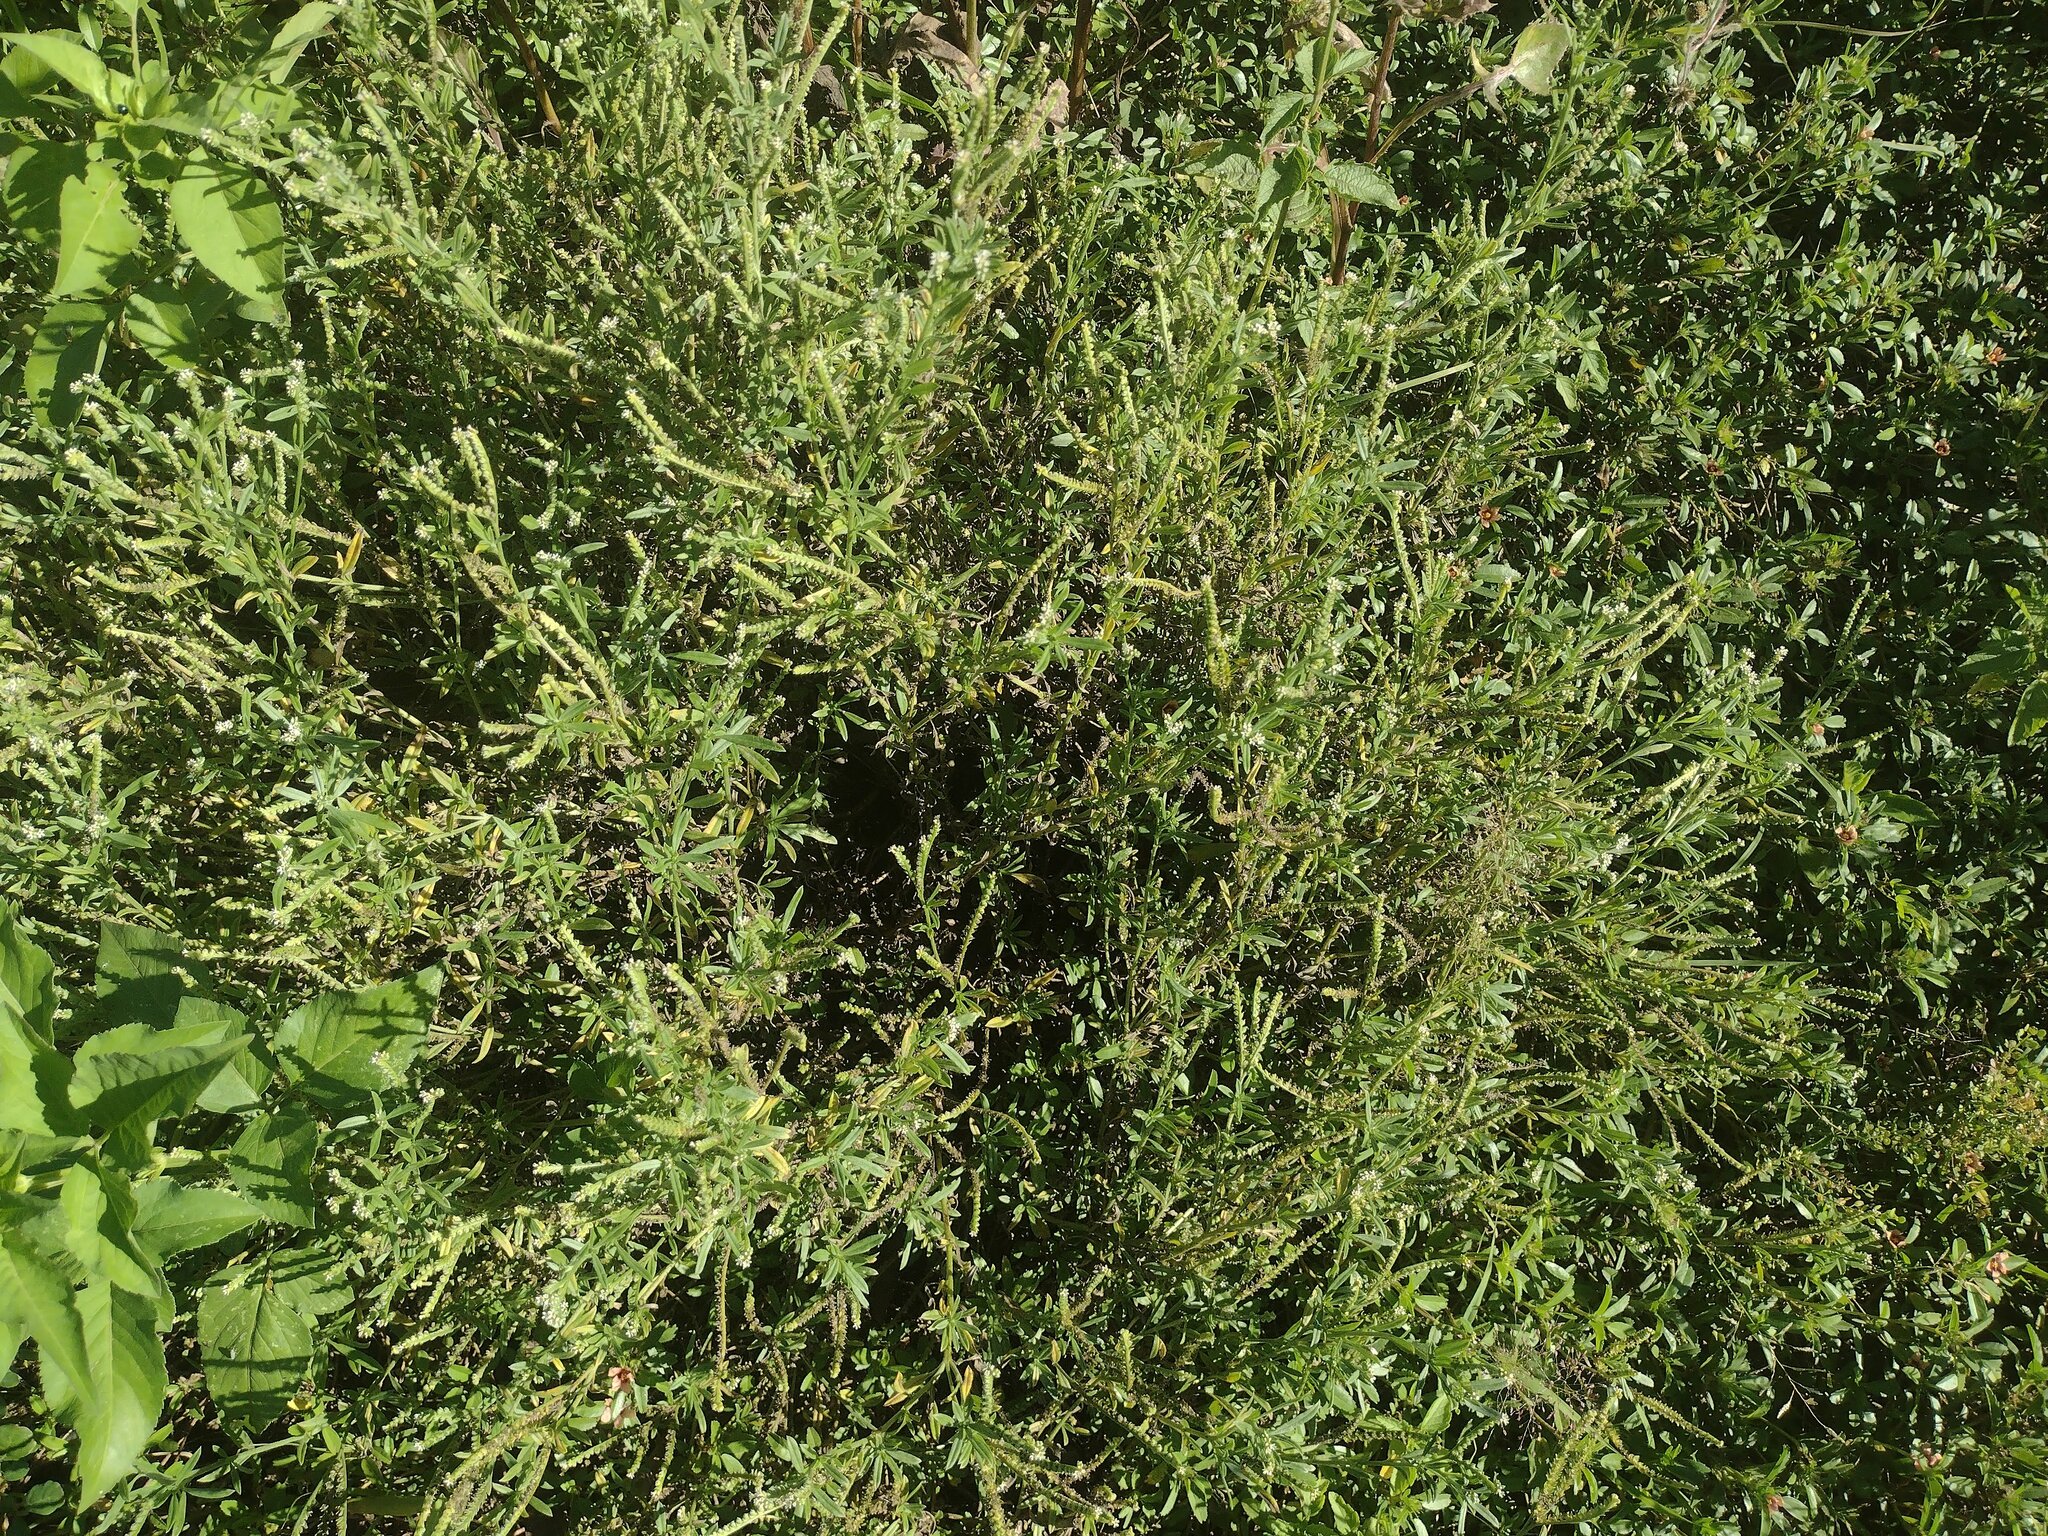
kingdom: Plantae
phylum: Tracheophyta
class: Magnoliopsida
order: Boraginales
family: Heliotropiaceae
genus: Euploca
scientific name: Euploca procumbens
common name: Fourspike heliotrope
